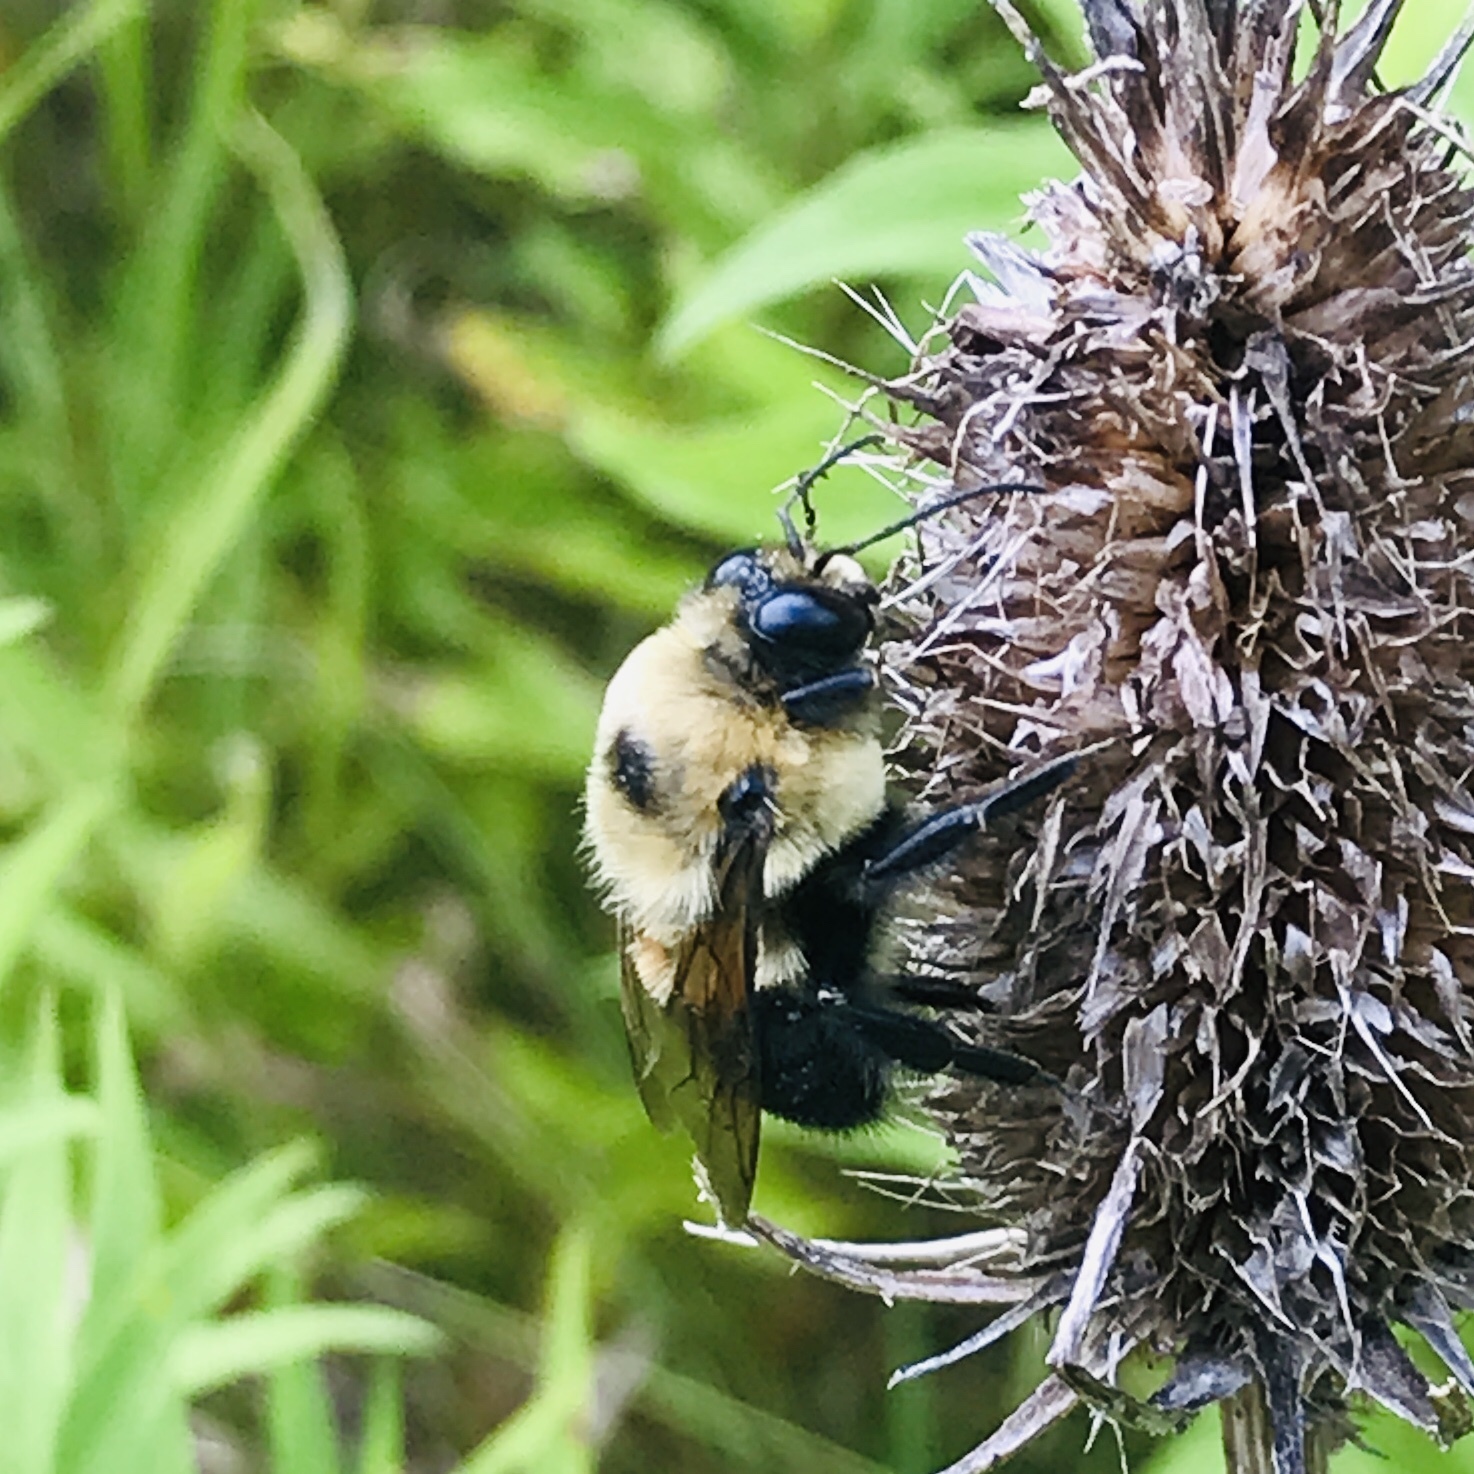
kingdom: Animalia
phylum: Arthropoda
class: Insecta
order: Hymenoptera
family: Apidae
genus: Bombus
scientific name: Bombus griseocollis
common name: Brown-belted bumble bee
